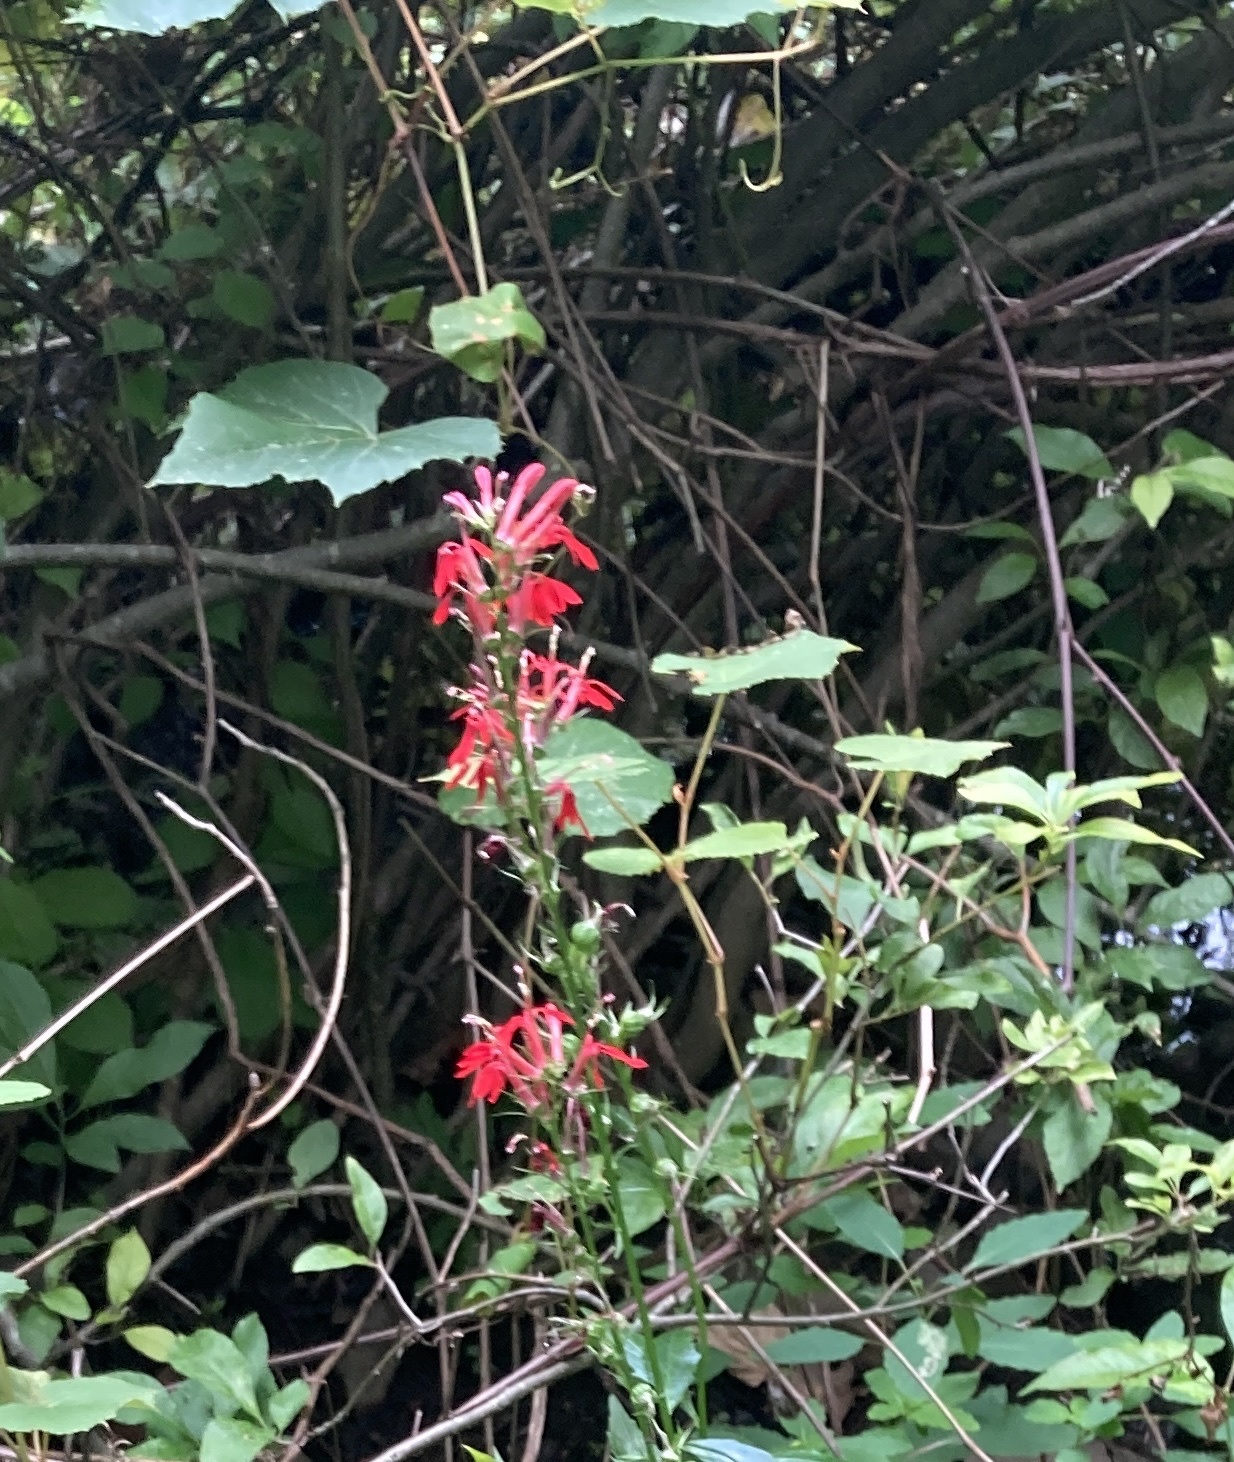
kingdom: Plantae
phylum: Tracheophyta
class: Magnoliopsida
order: Asterales
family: Campanulaceae
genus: Lobelia
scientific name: Lobelia cardinalis
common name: Cardinal flower
